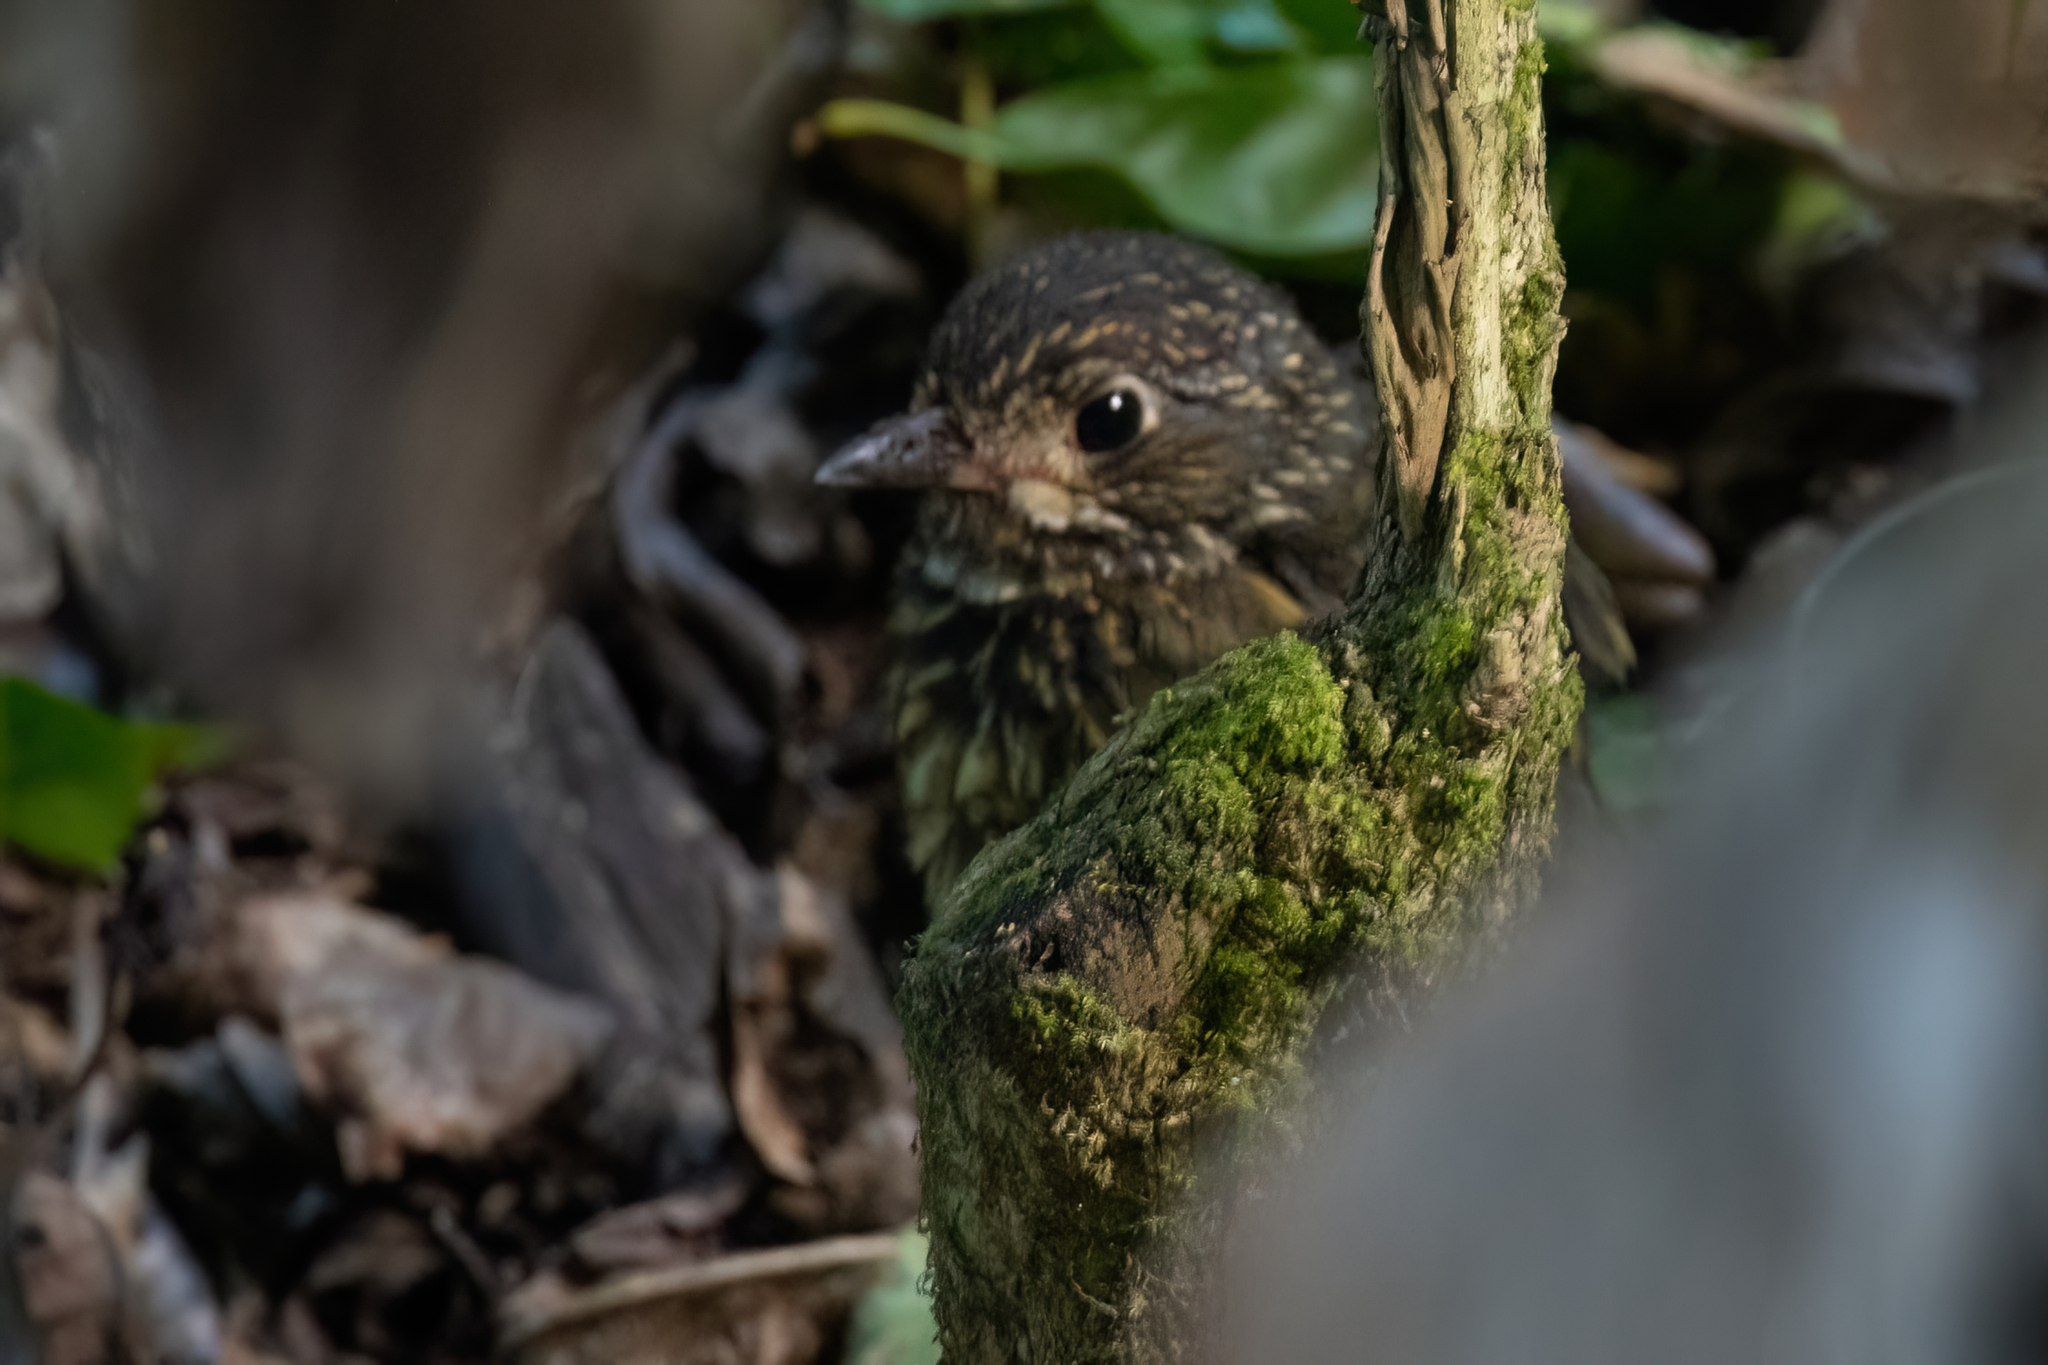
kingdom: Animalia
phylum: Chordata
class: Aves
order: Passeriformes
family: Grallariidae
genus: Grallaria
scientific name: Grallaria guatimalensis
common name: Scaled antpitta
